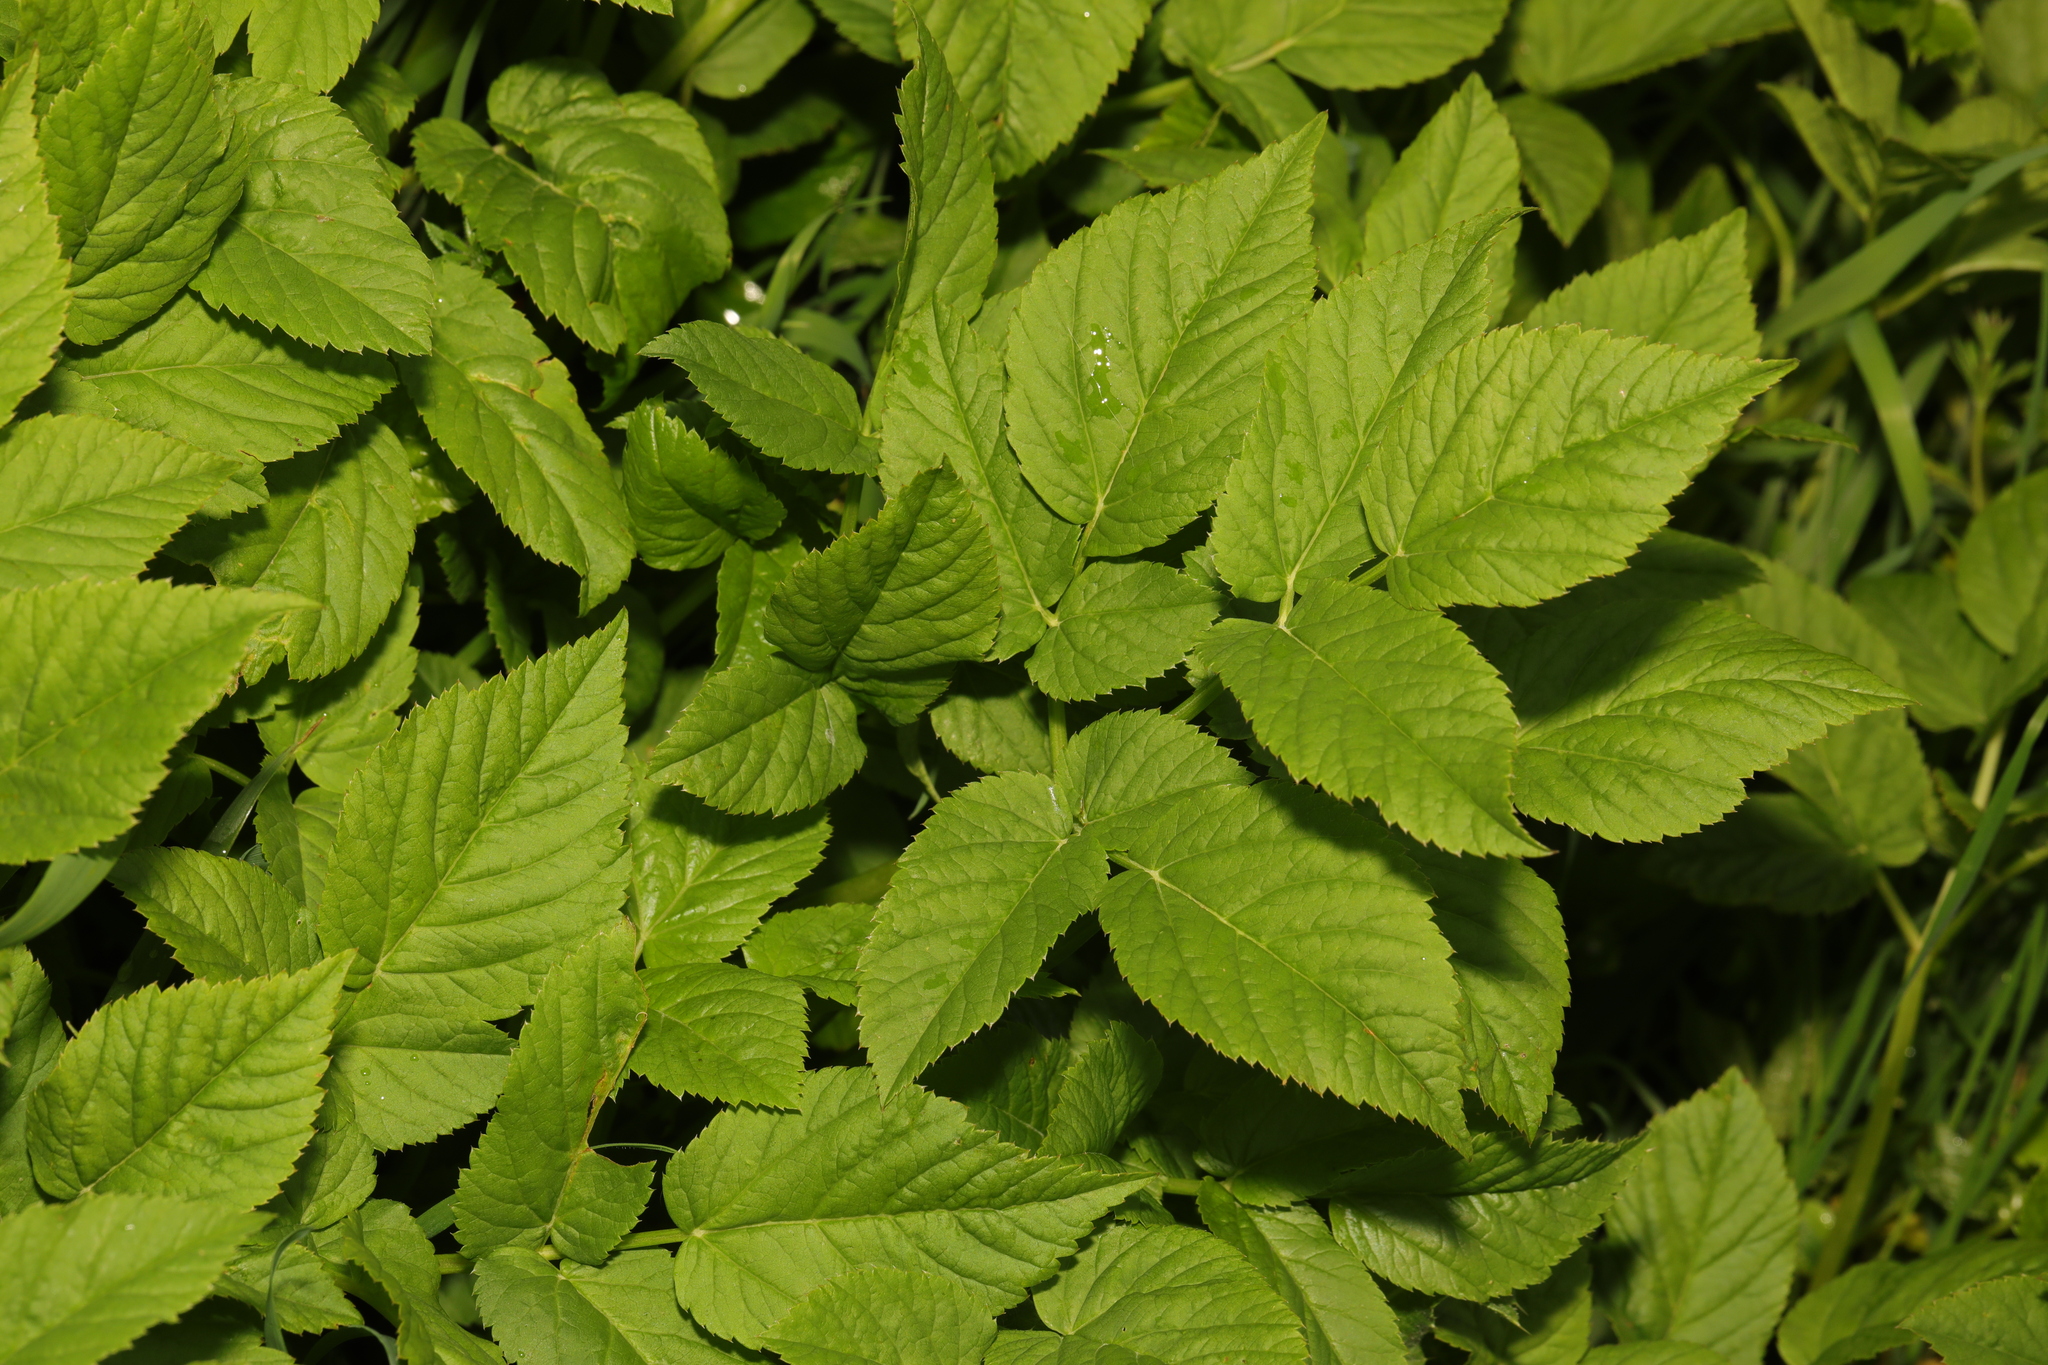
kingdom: Plantae
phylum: Tracheophyta
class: Magnoliopsida
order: Apiales
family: Apiaceae
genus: Aegopodium
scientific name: Aegopodium podagraria
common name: Ground-elder
